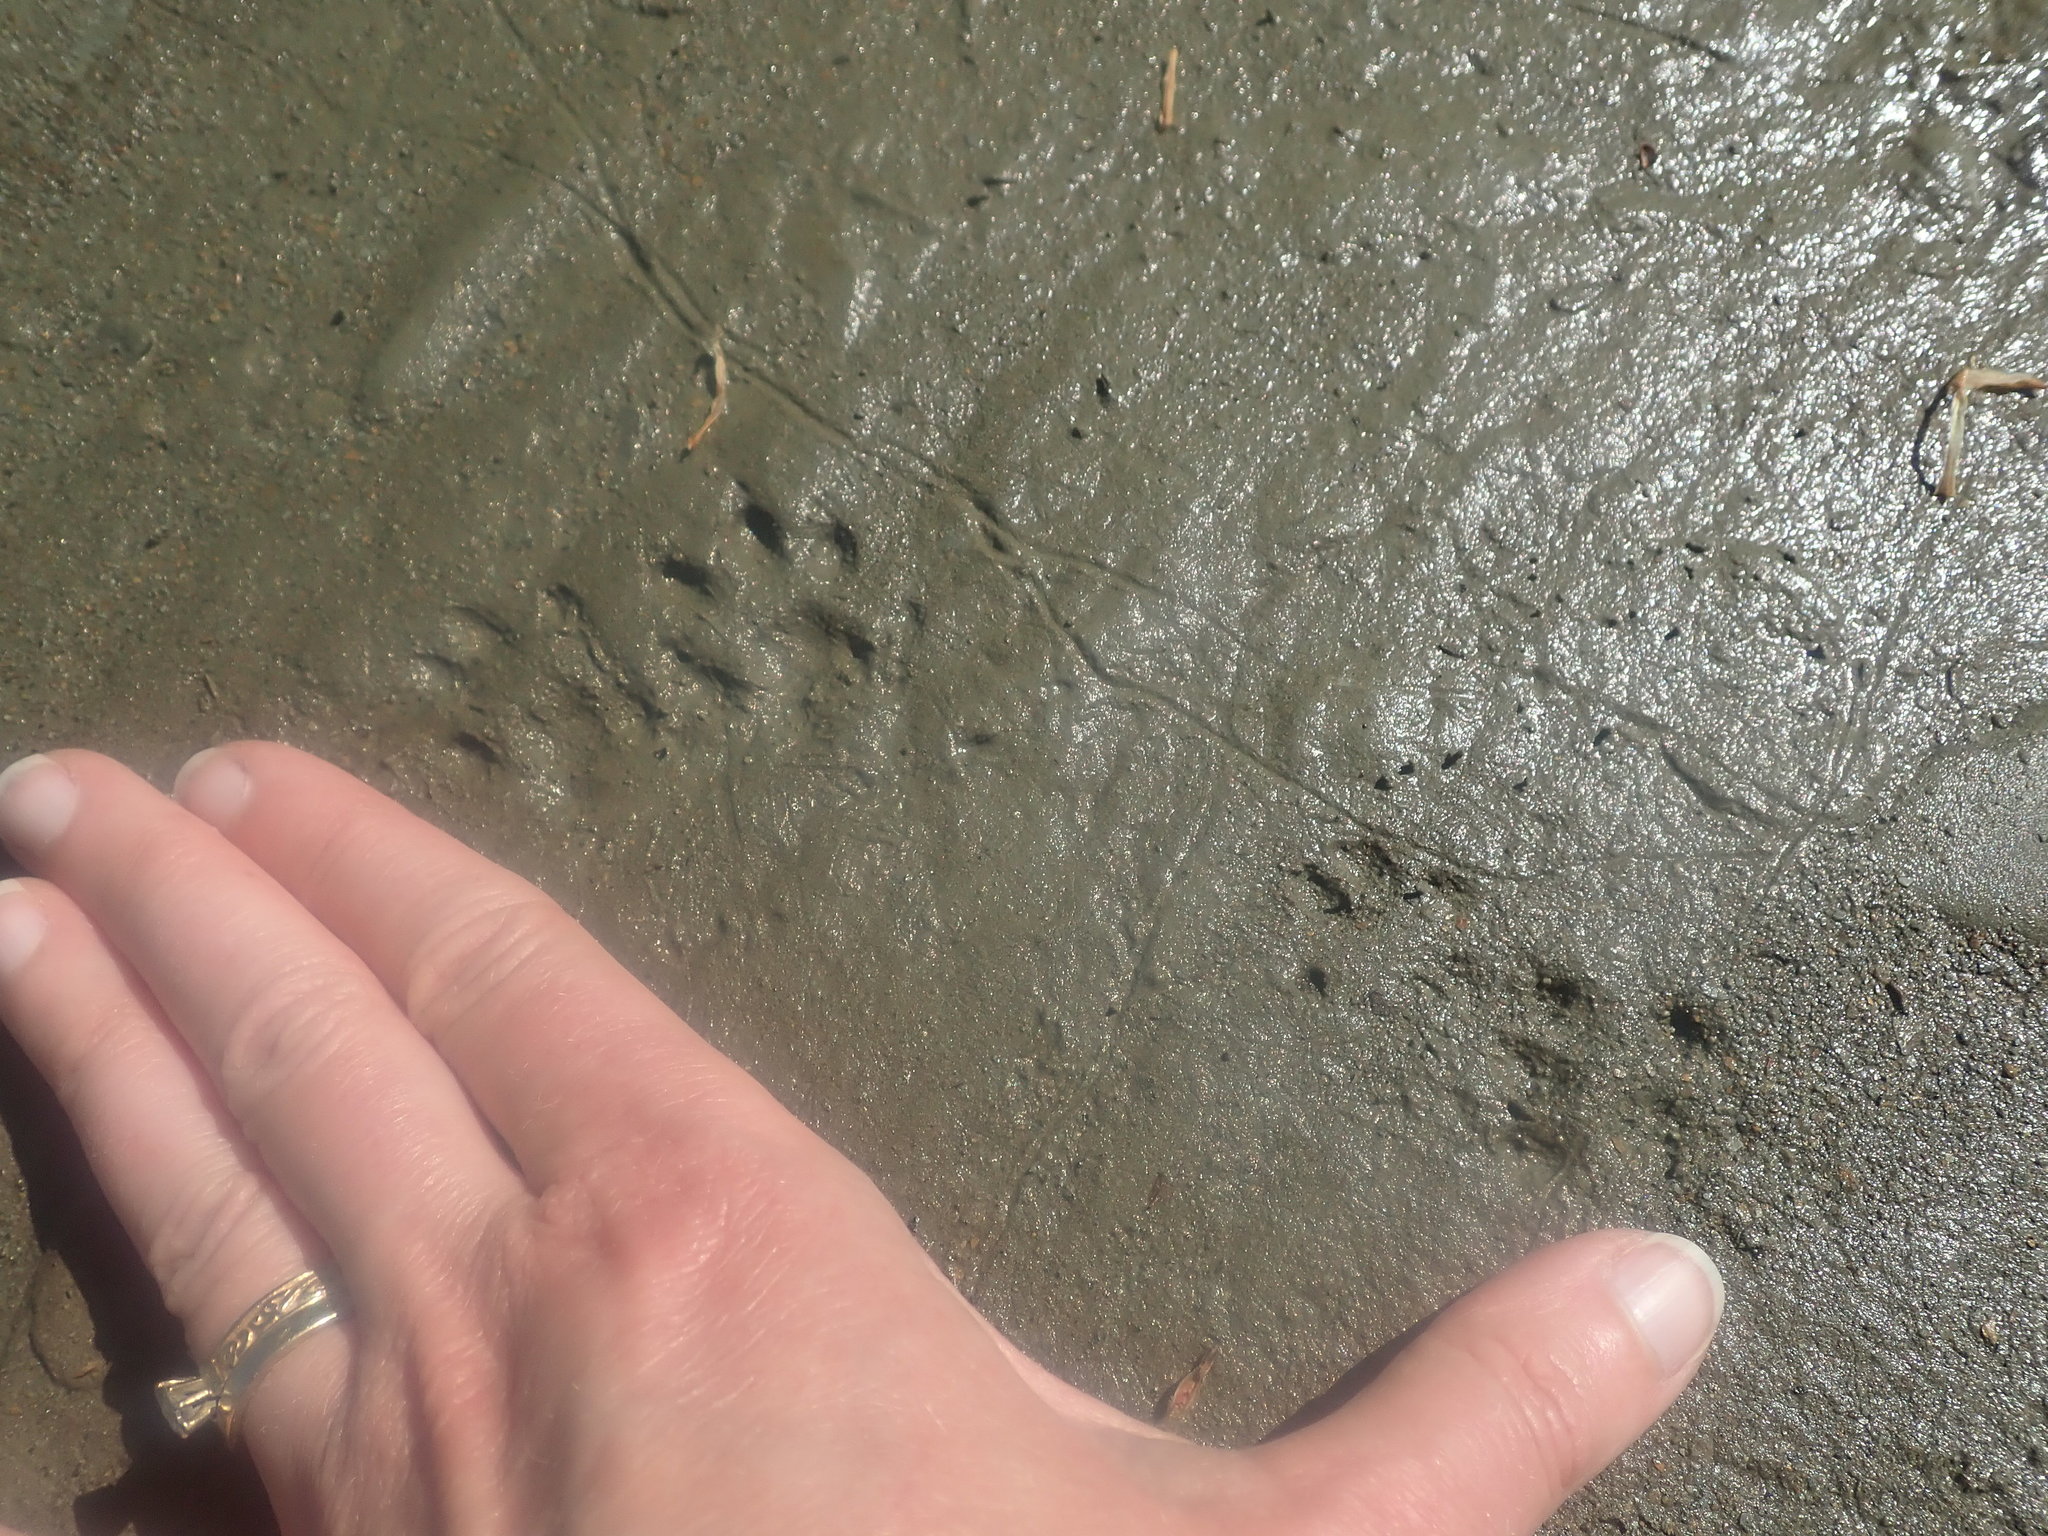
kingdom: Animalia
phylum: Chordata
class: Mammalia
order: Carnivora
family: Mustelidae
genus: Mustela
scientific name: Mustela
